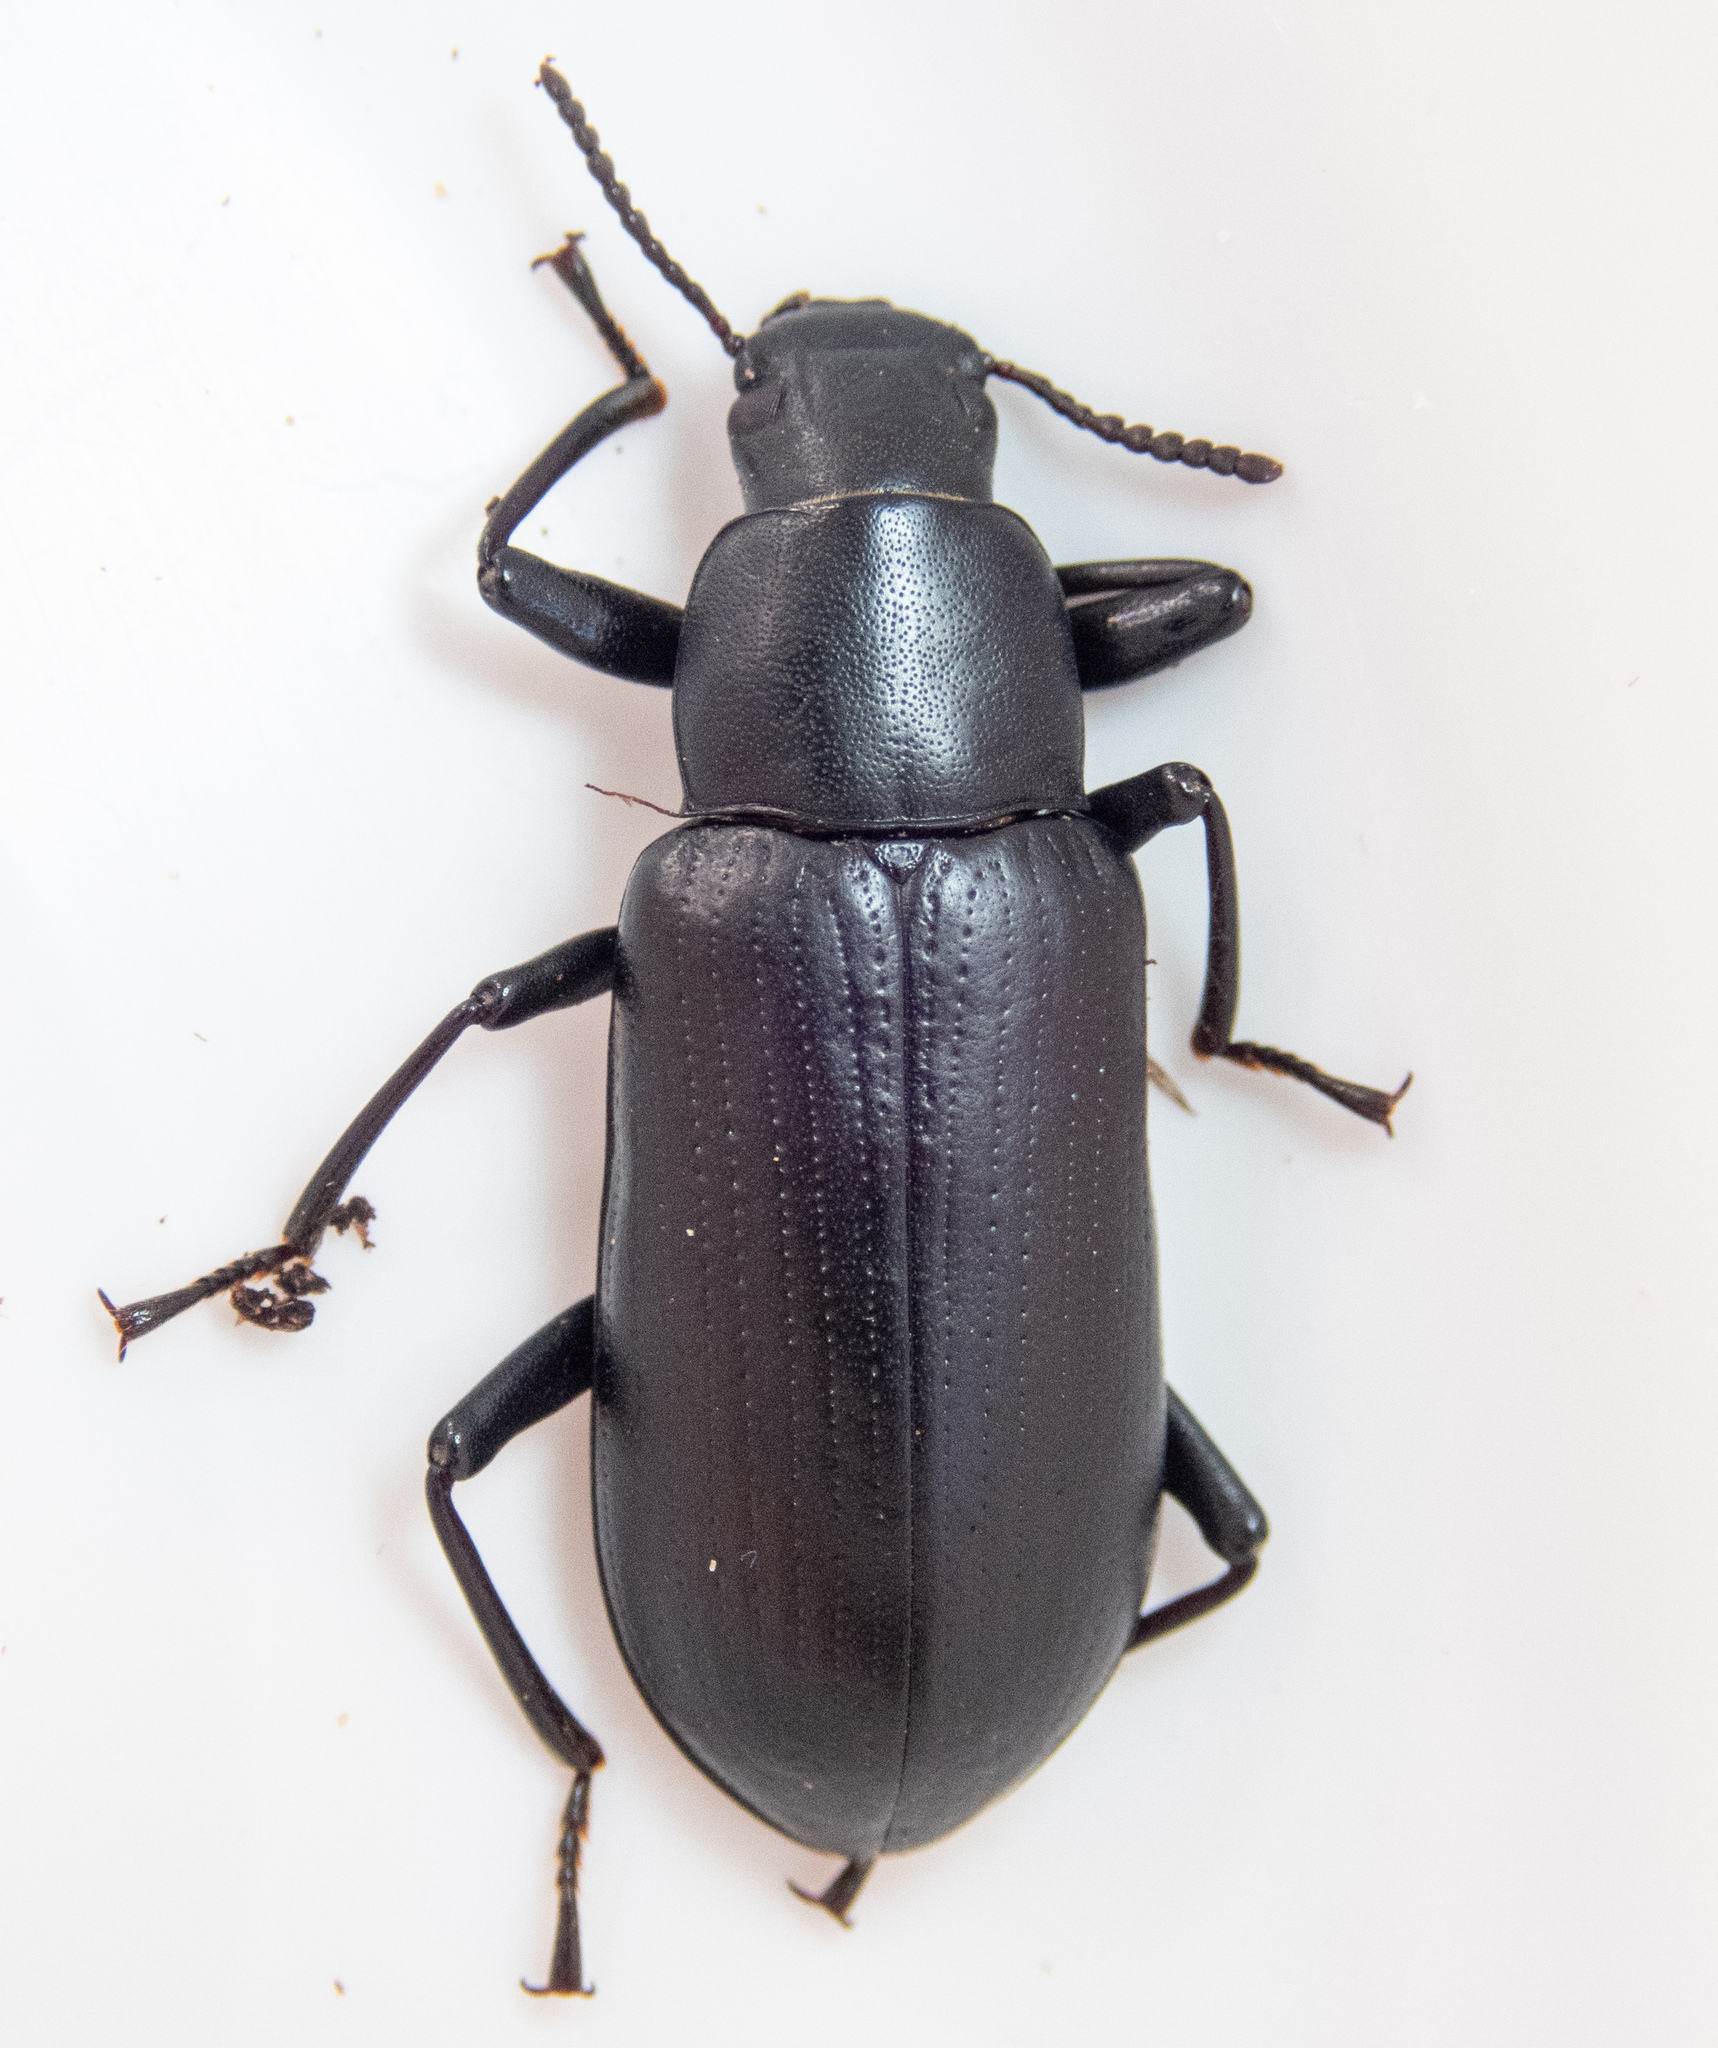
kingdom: Animalia
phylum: Arthropoda
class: Insecta
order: Coleoptera
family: Tenebrionidae
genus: Alobates
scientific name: Alobates pensylvanicus
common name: False mealworm beetle
